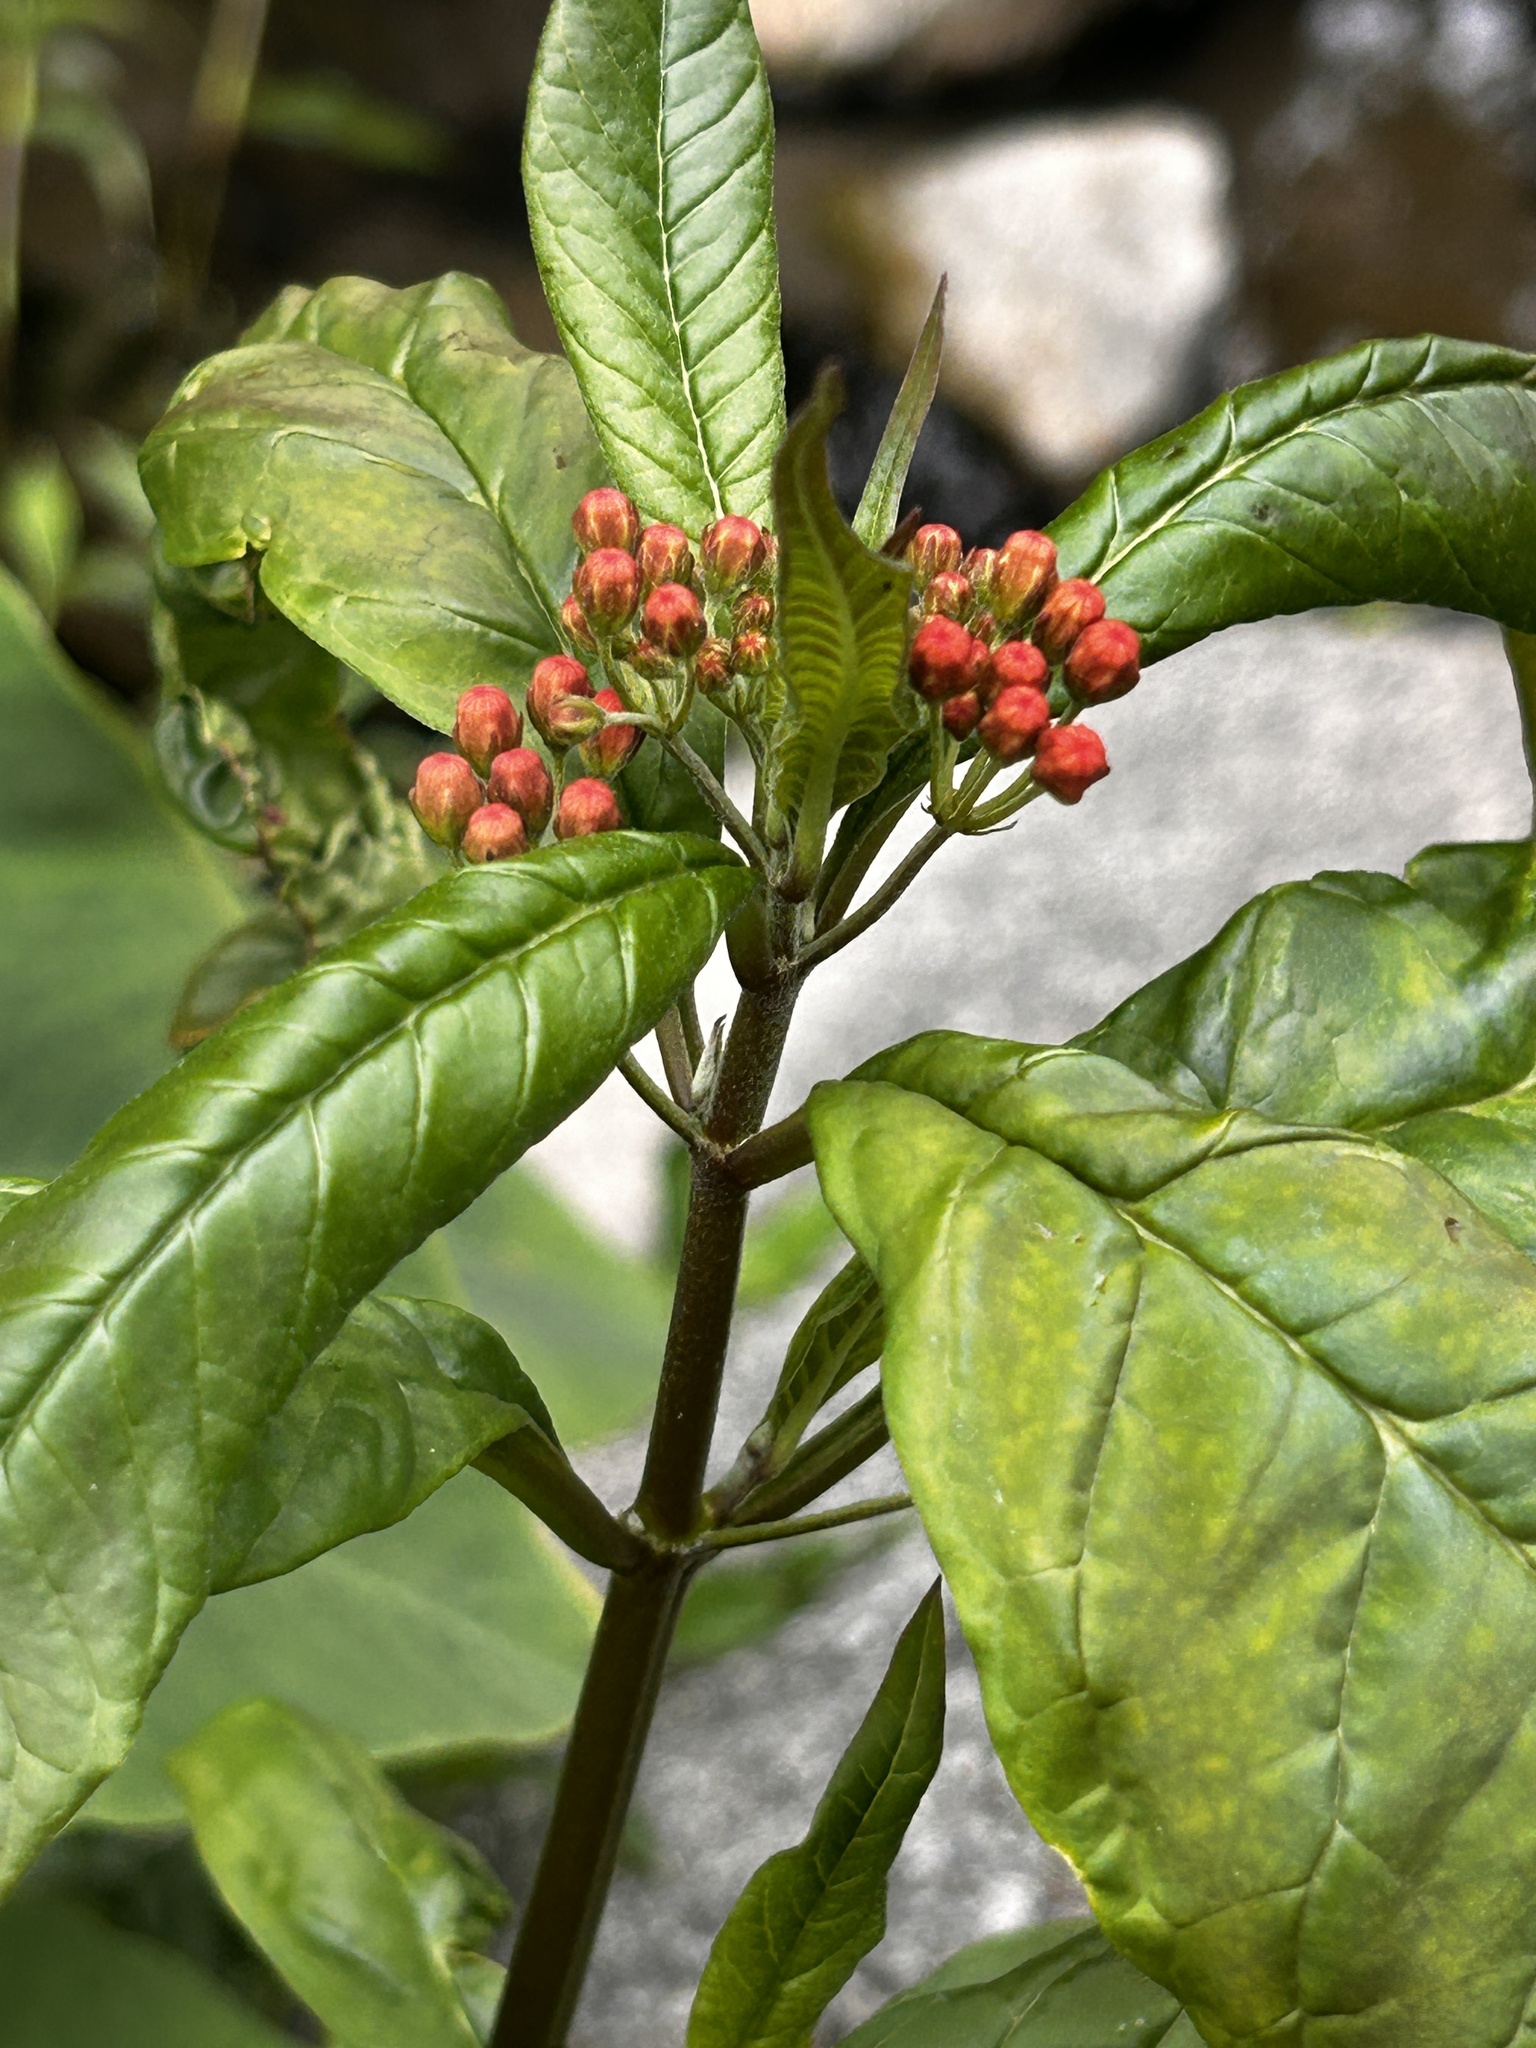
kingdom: Plantae
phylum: Tracheophyta
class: Magnoliopsida
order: Gentianales
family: Apocynaceae
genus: Asclepias
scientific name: Asclepias curassavica
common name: Bloodflower
